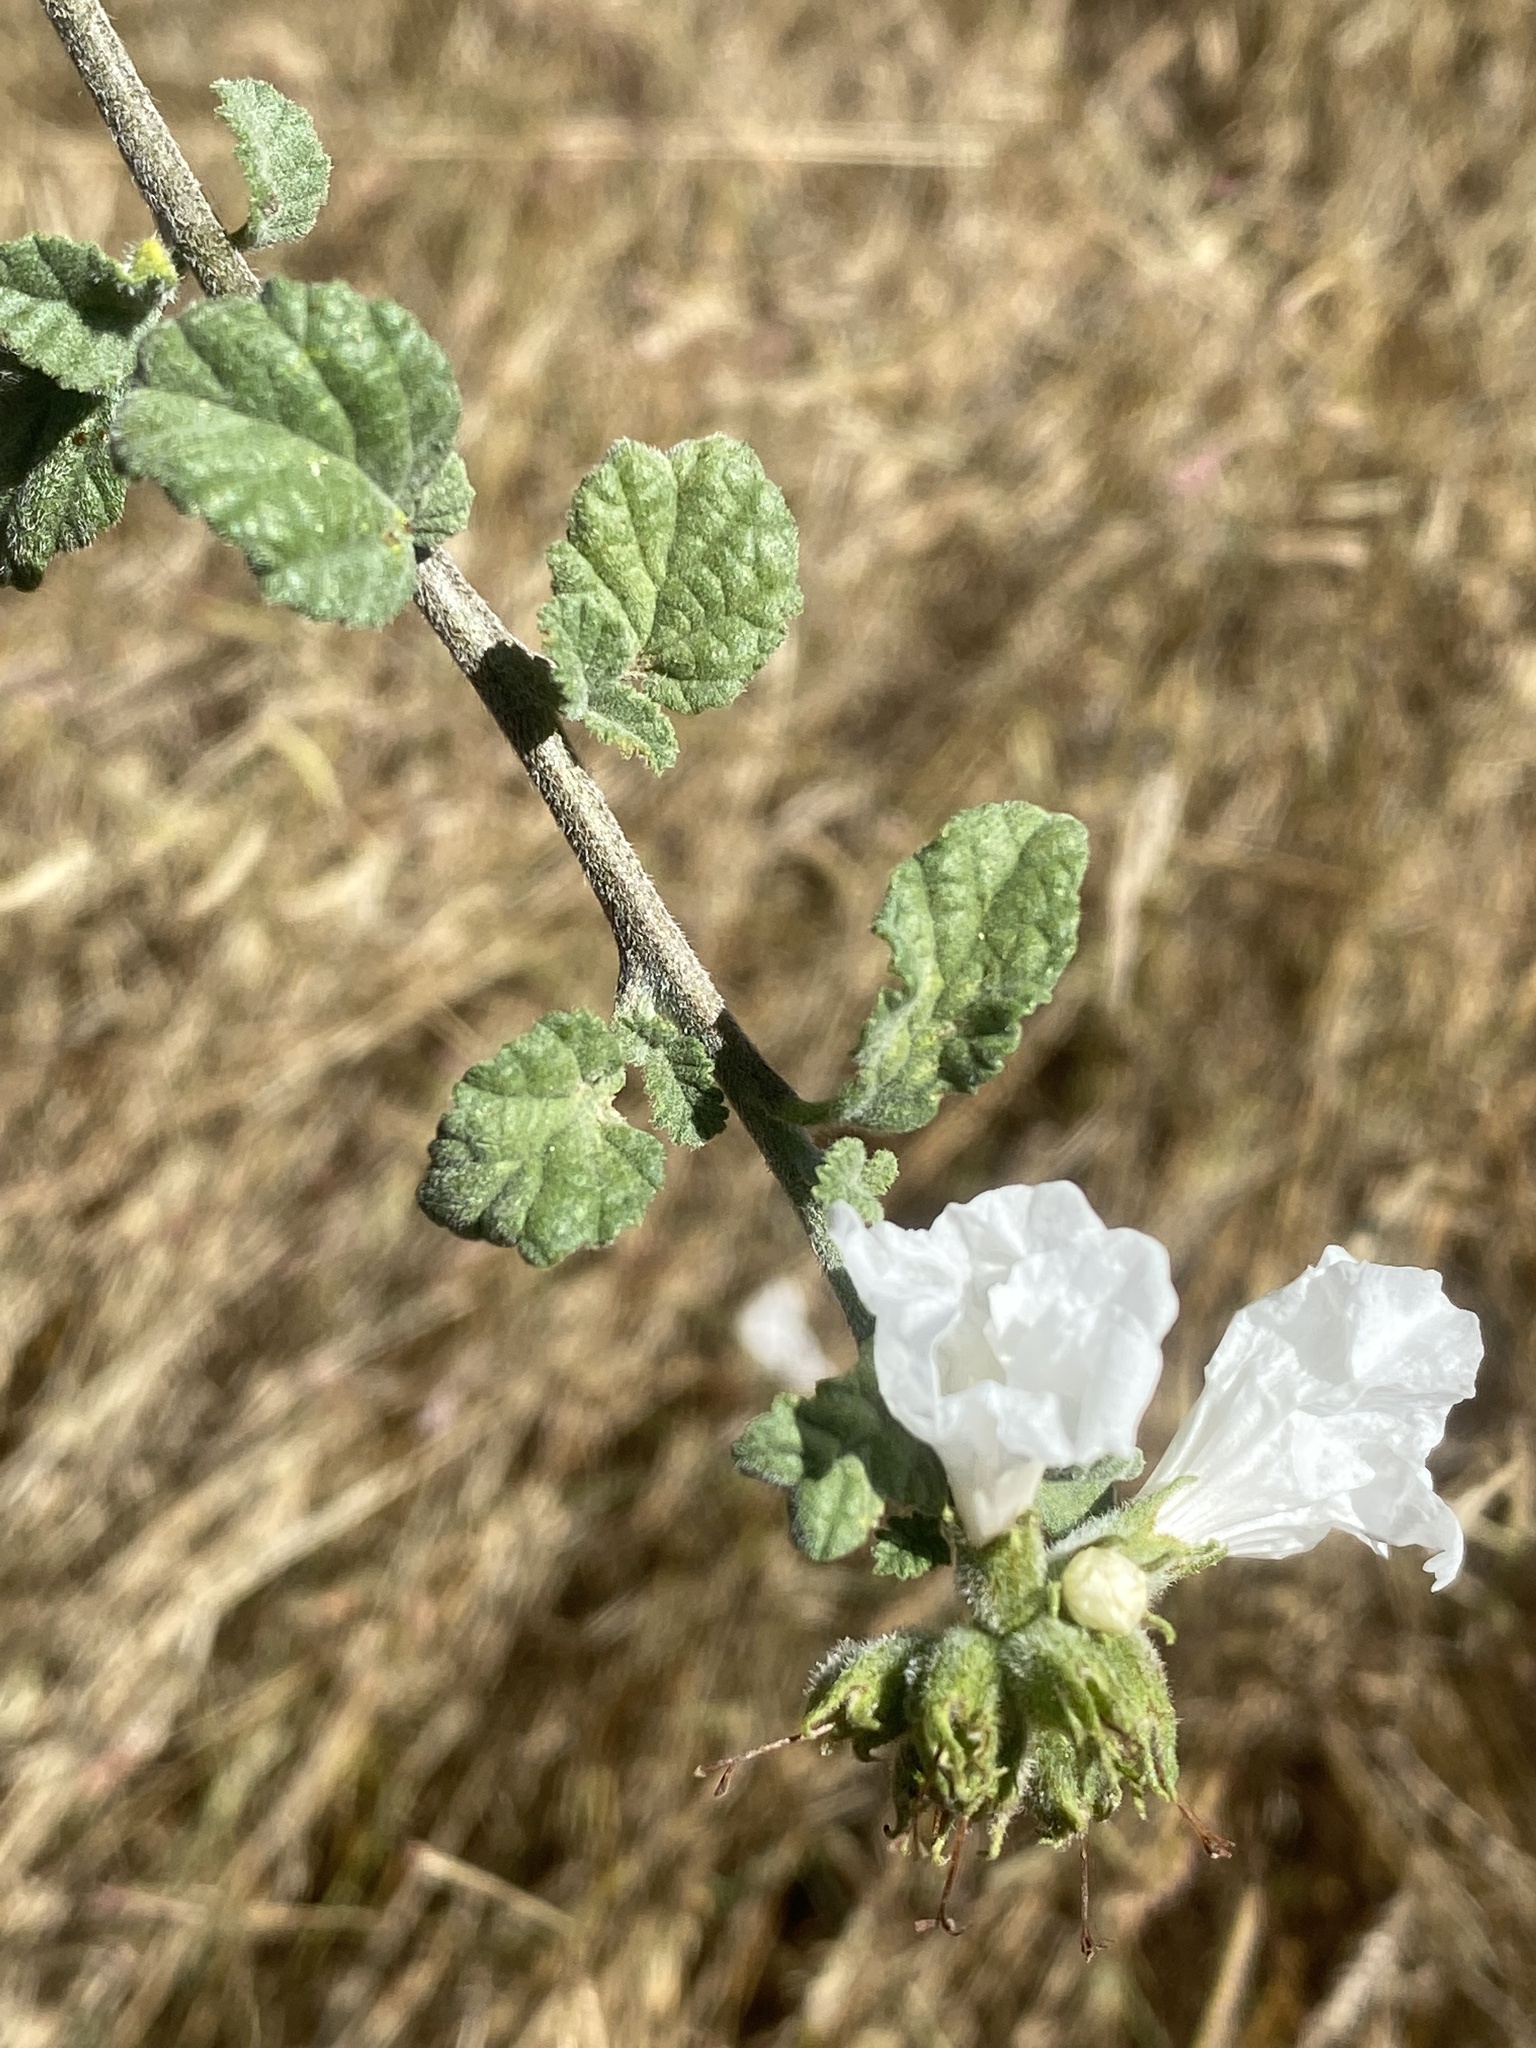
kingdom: Plantae
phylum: Tracheophyta
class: Magnoliopsida
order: Boraginales
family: Cordiaceae
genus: Cordia
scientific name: Cordia parvifolia
